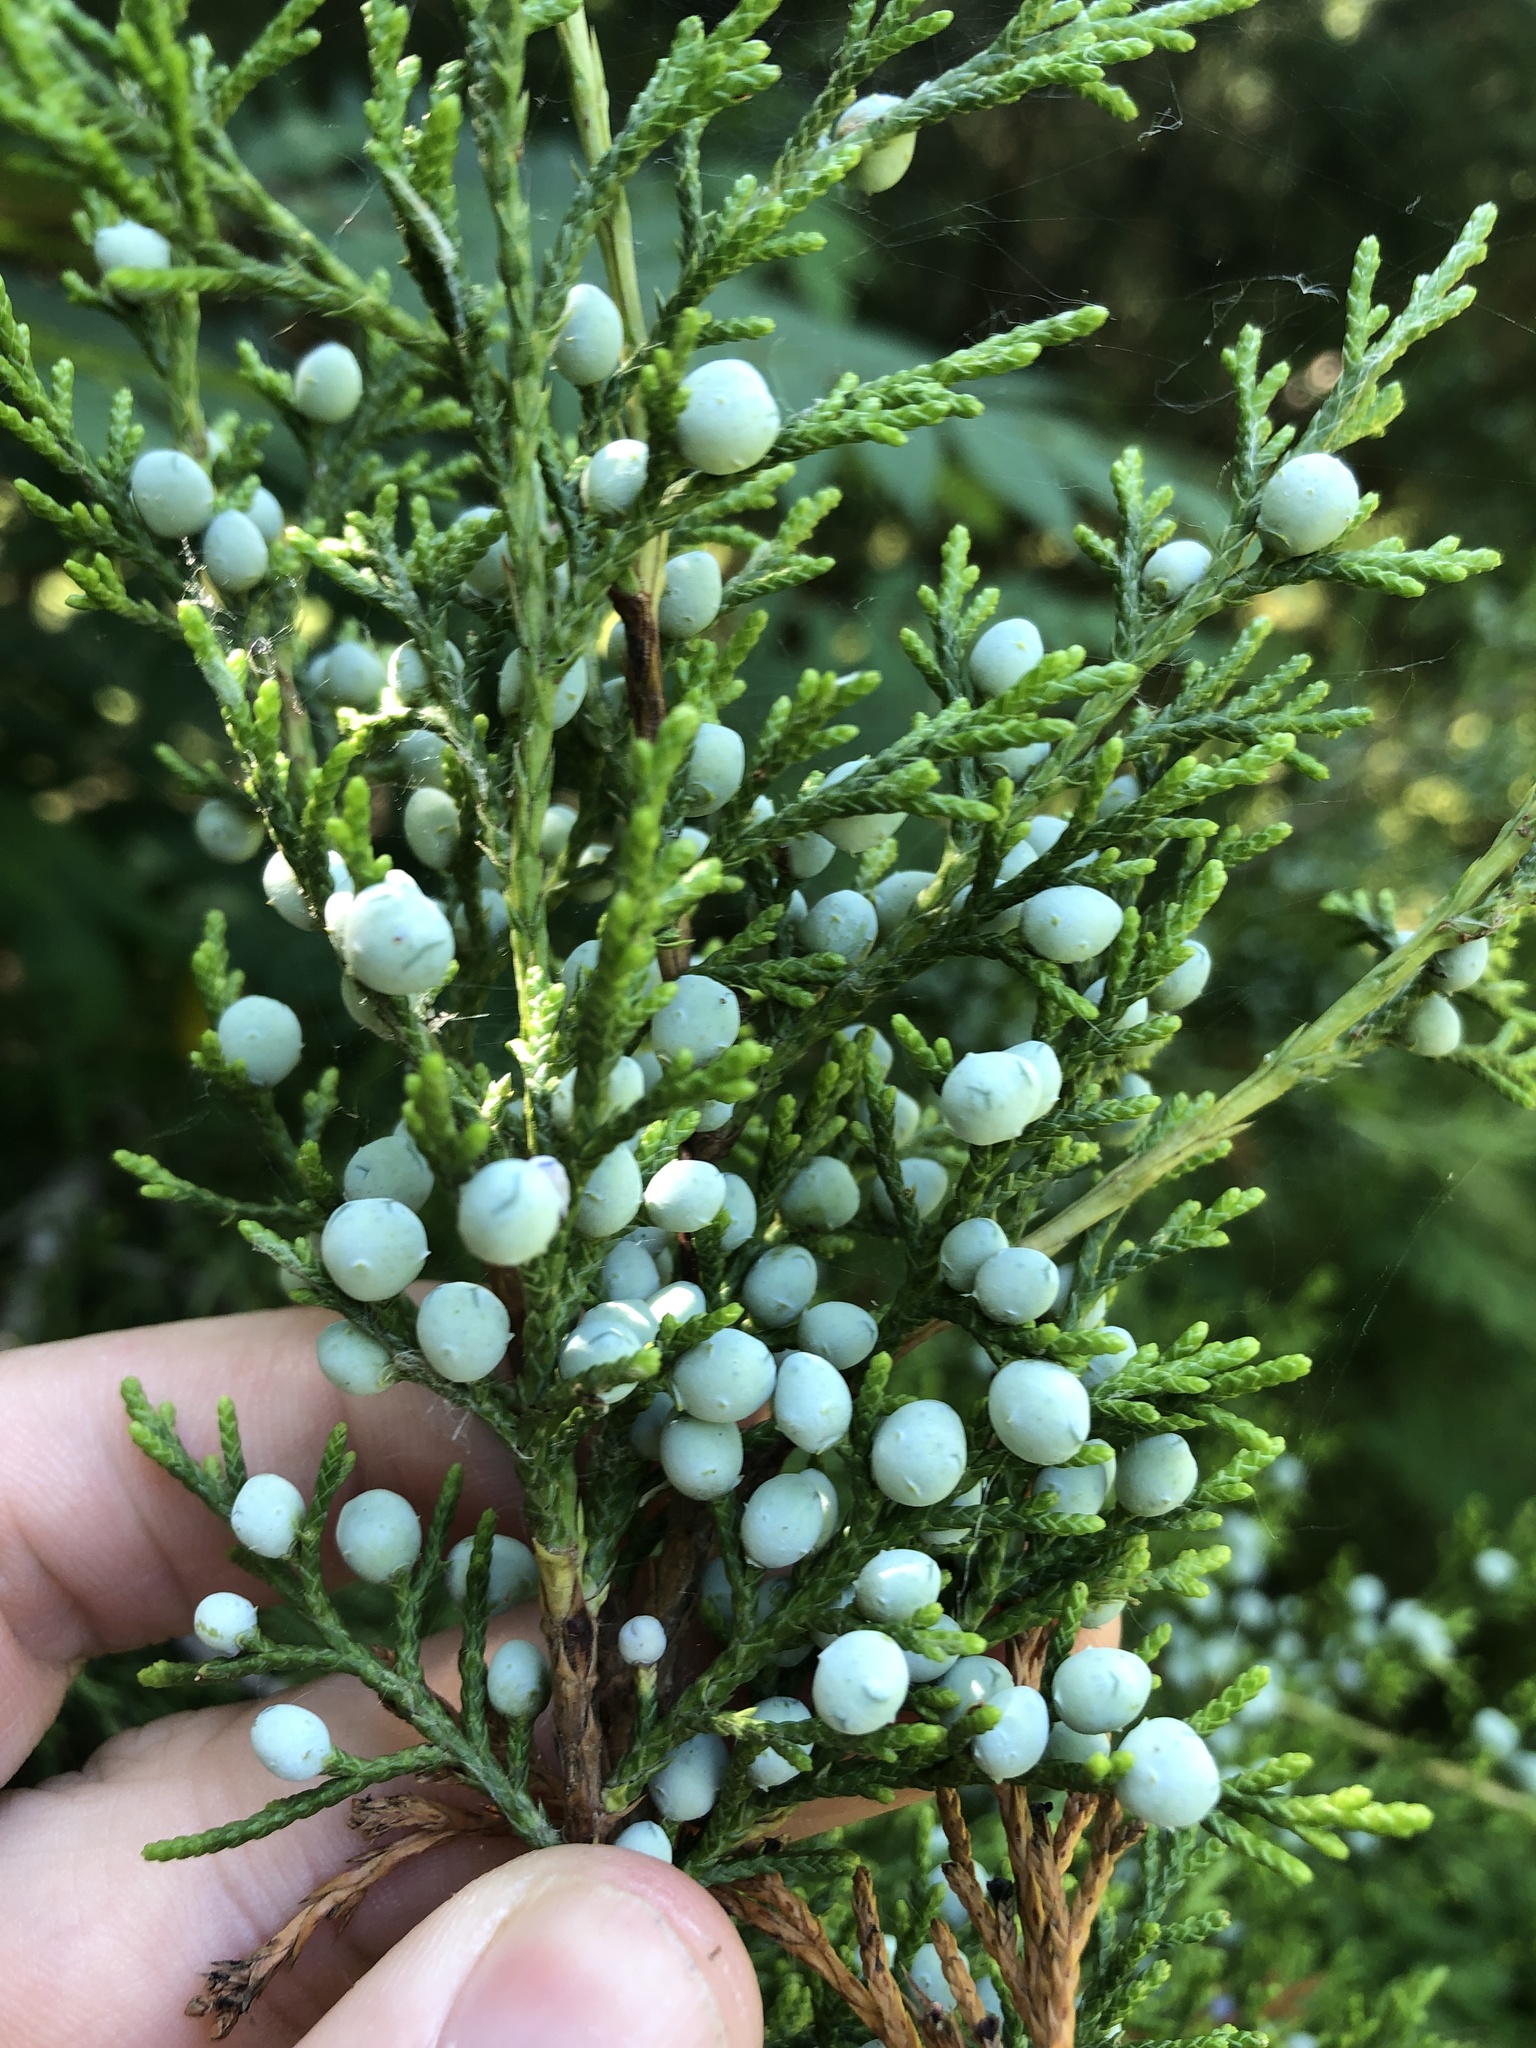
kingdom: Plantae
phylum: Tracheophyta
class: Pinopsida
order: Pinales
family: Cupressaceae
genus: Juniperus
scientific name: Juniperus virginiana
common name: Red juniper
